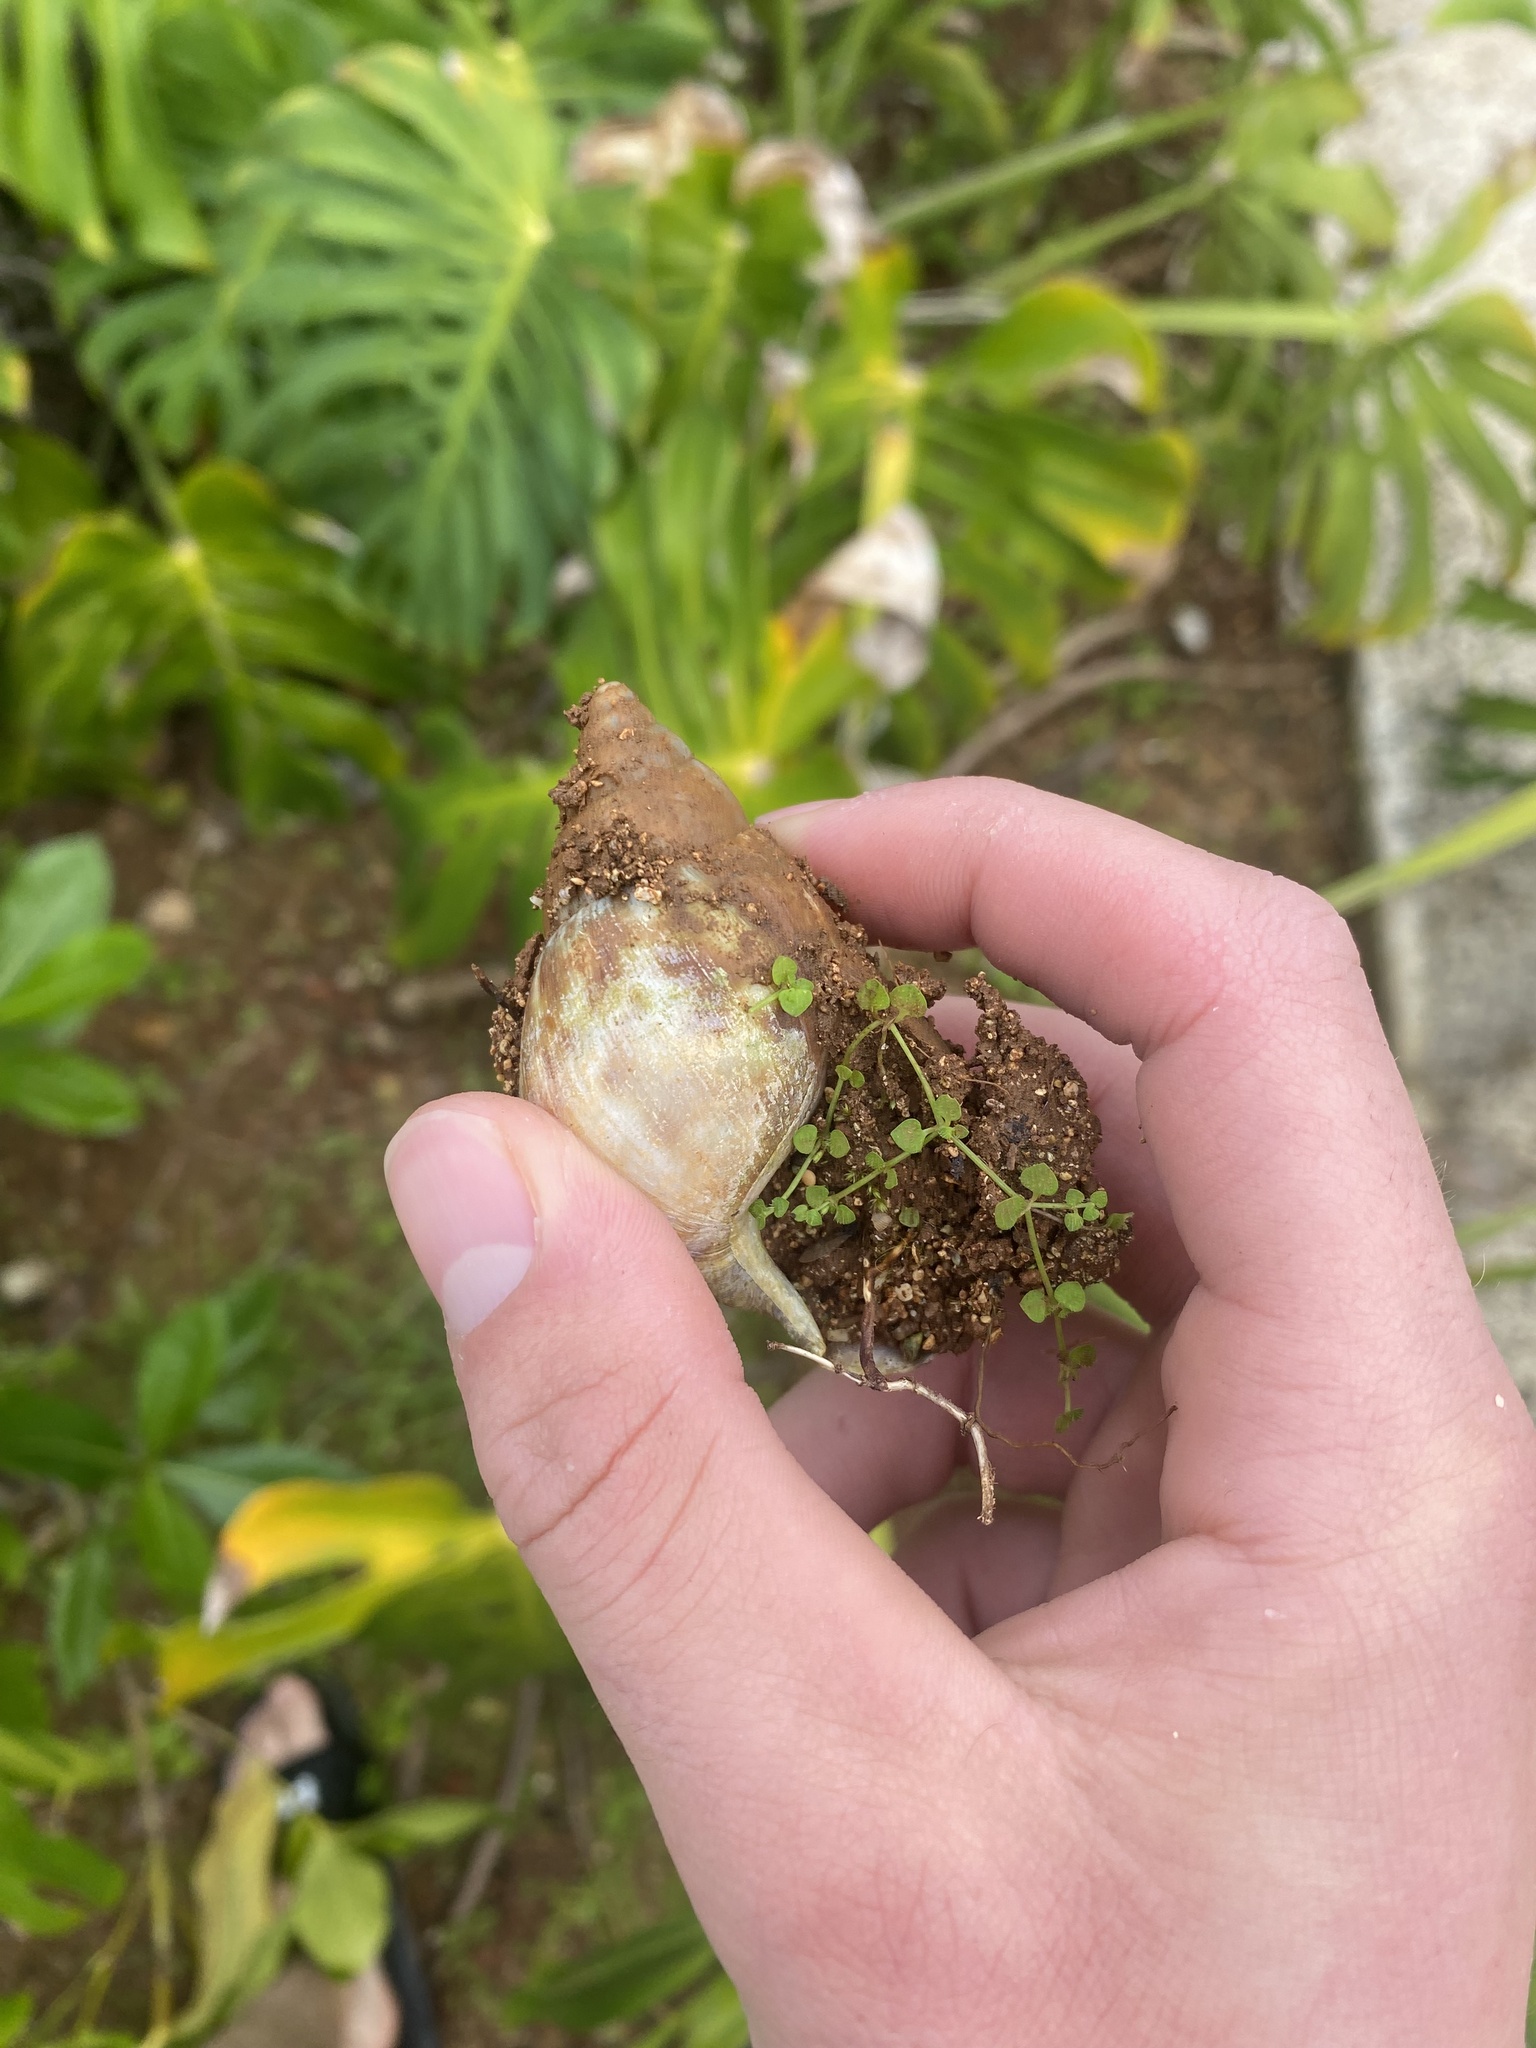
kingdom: Animalia
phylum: Mollusca
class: Gastropoda
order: Stylommatophora
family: Achatinidae
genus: Lissachatina
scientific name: Lissachatina fulica
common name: Giant african snail
